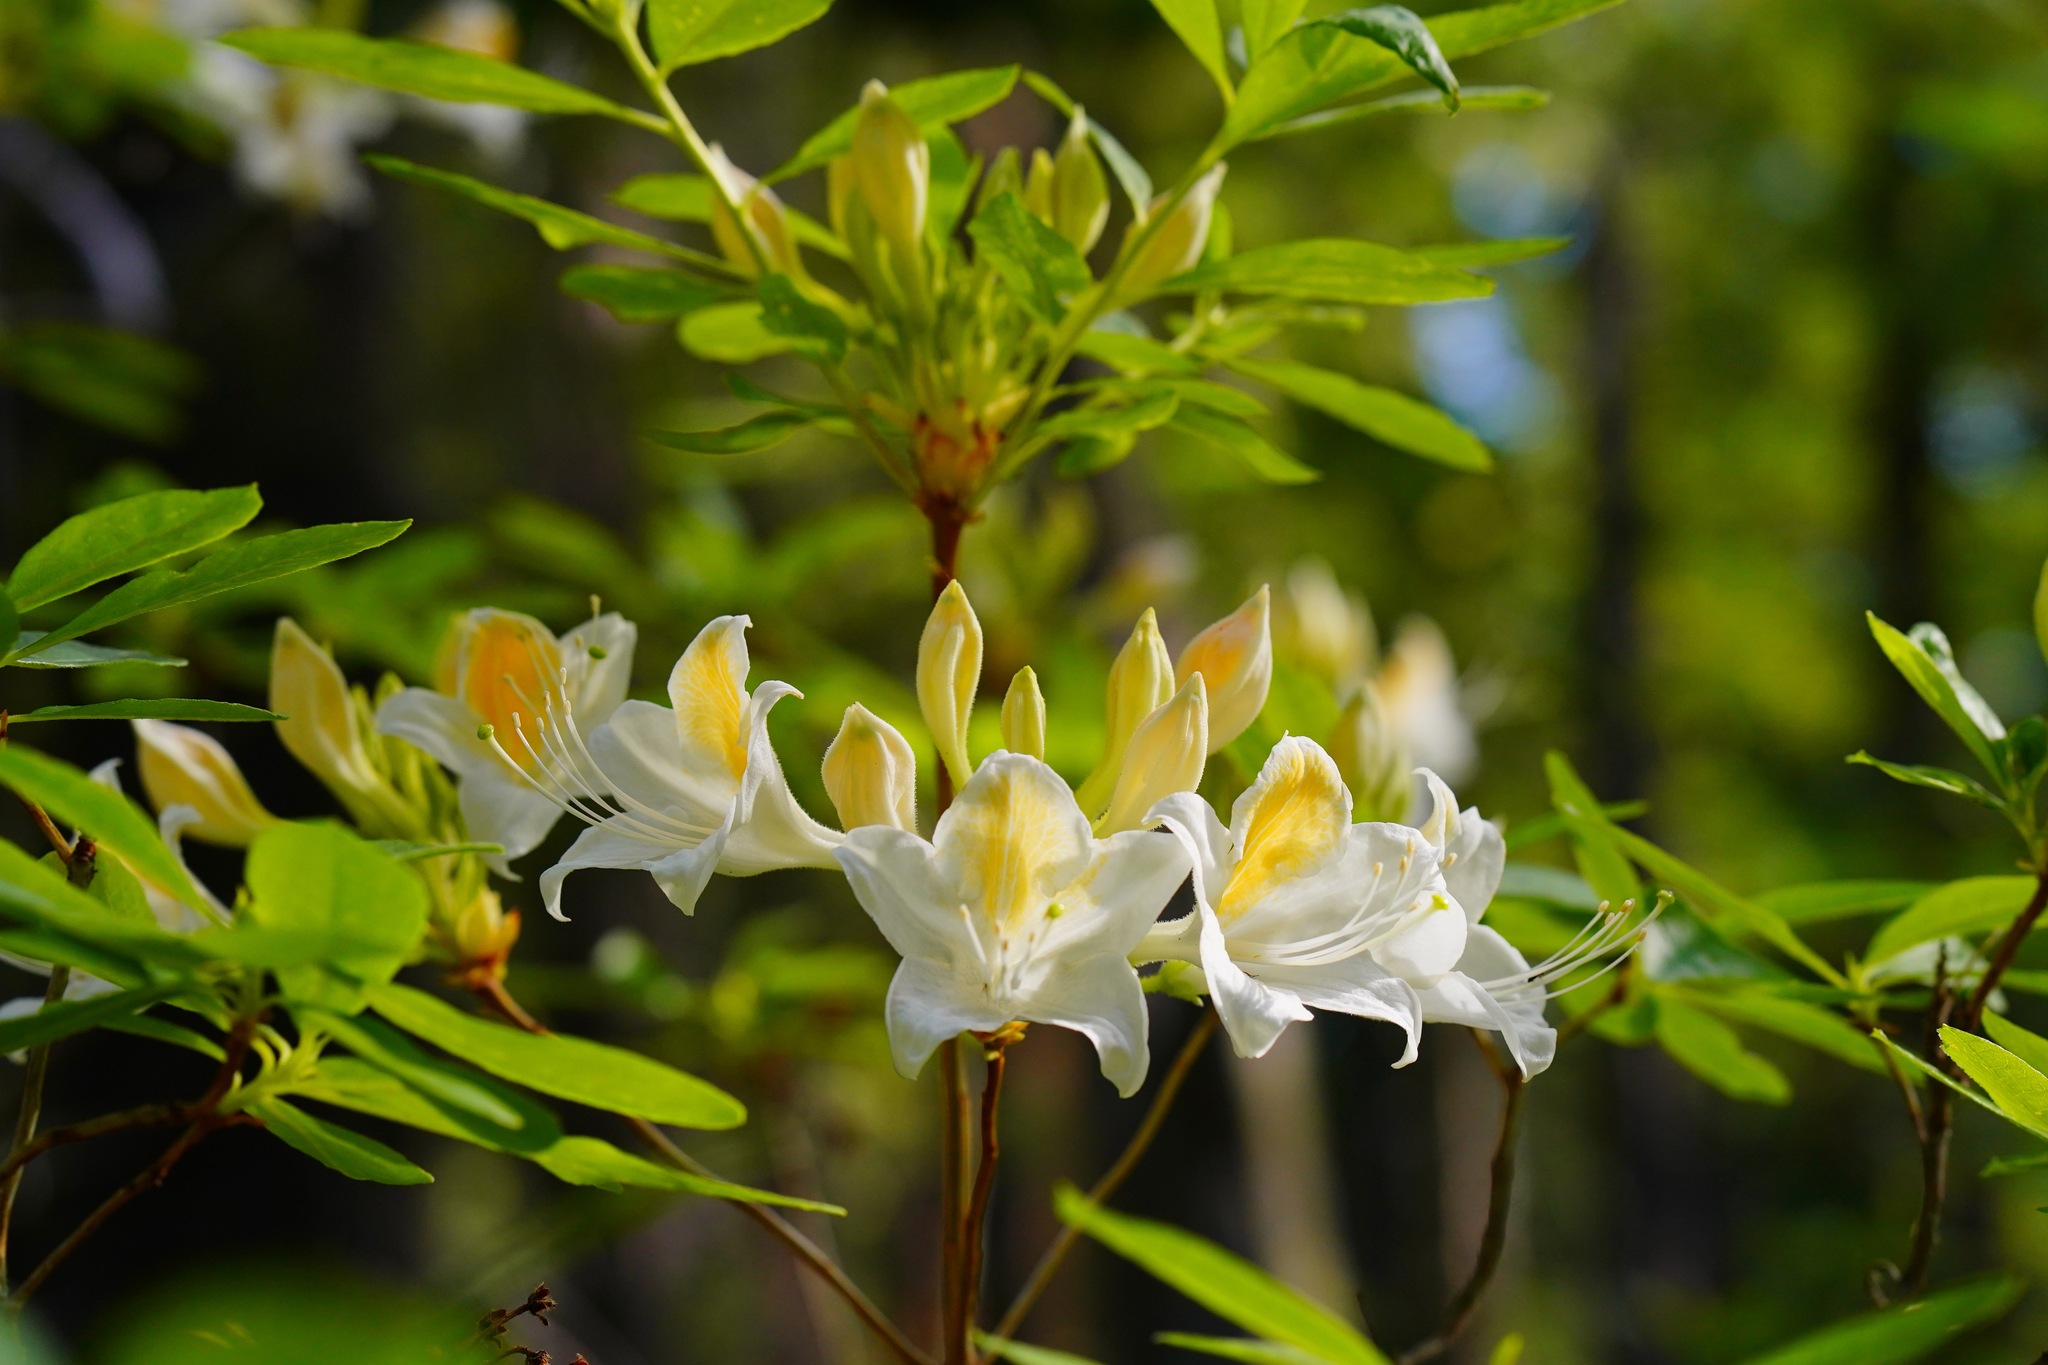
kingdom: Plantae
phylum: Tracheophyta
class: Magnoliopsida
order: Ericales
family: Ericaceae
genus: Rhododendron
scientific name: Rhododendron occidentale
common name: Western azalea
